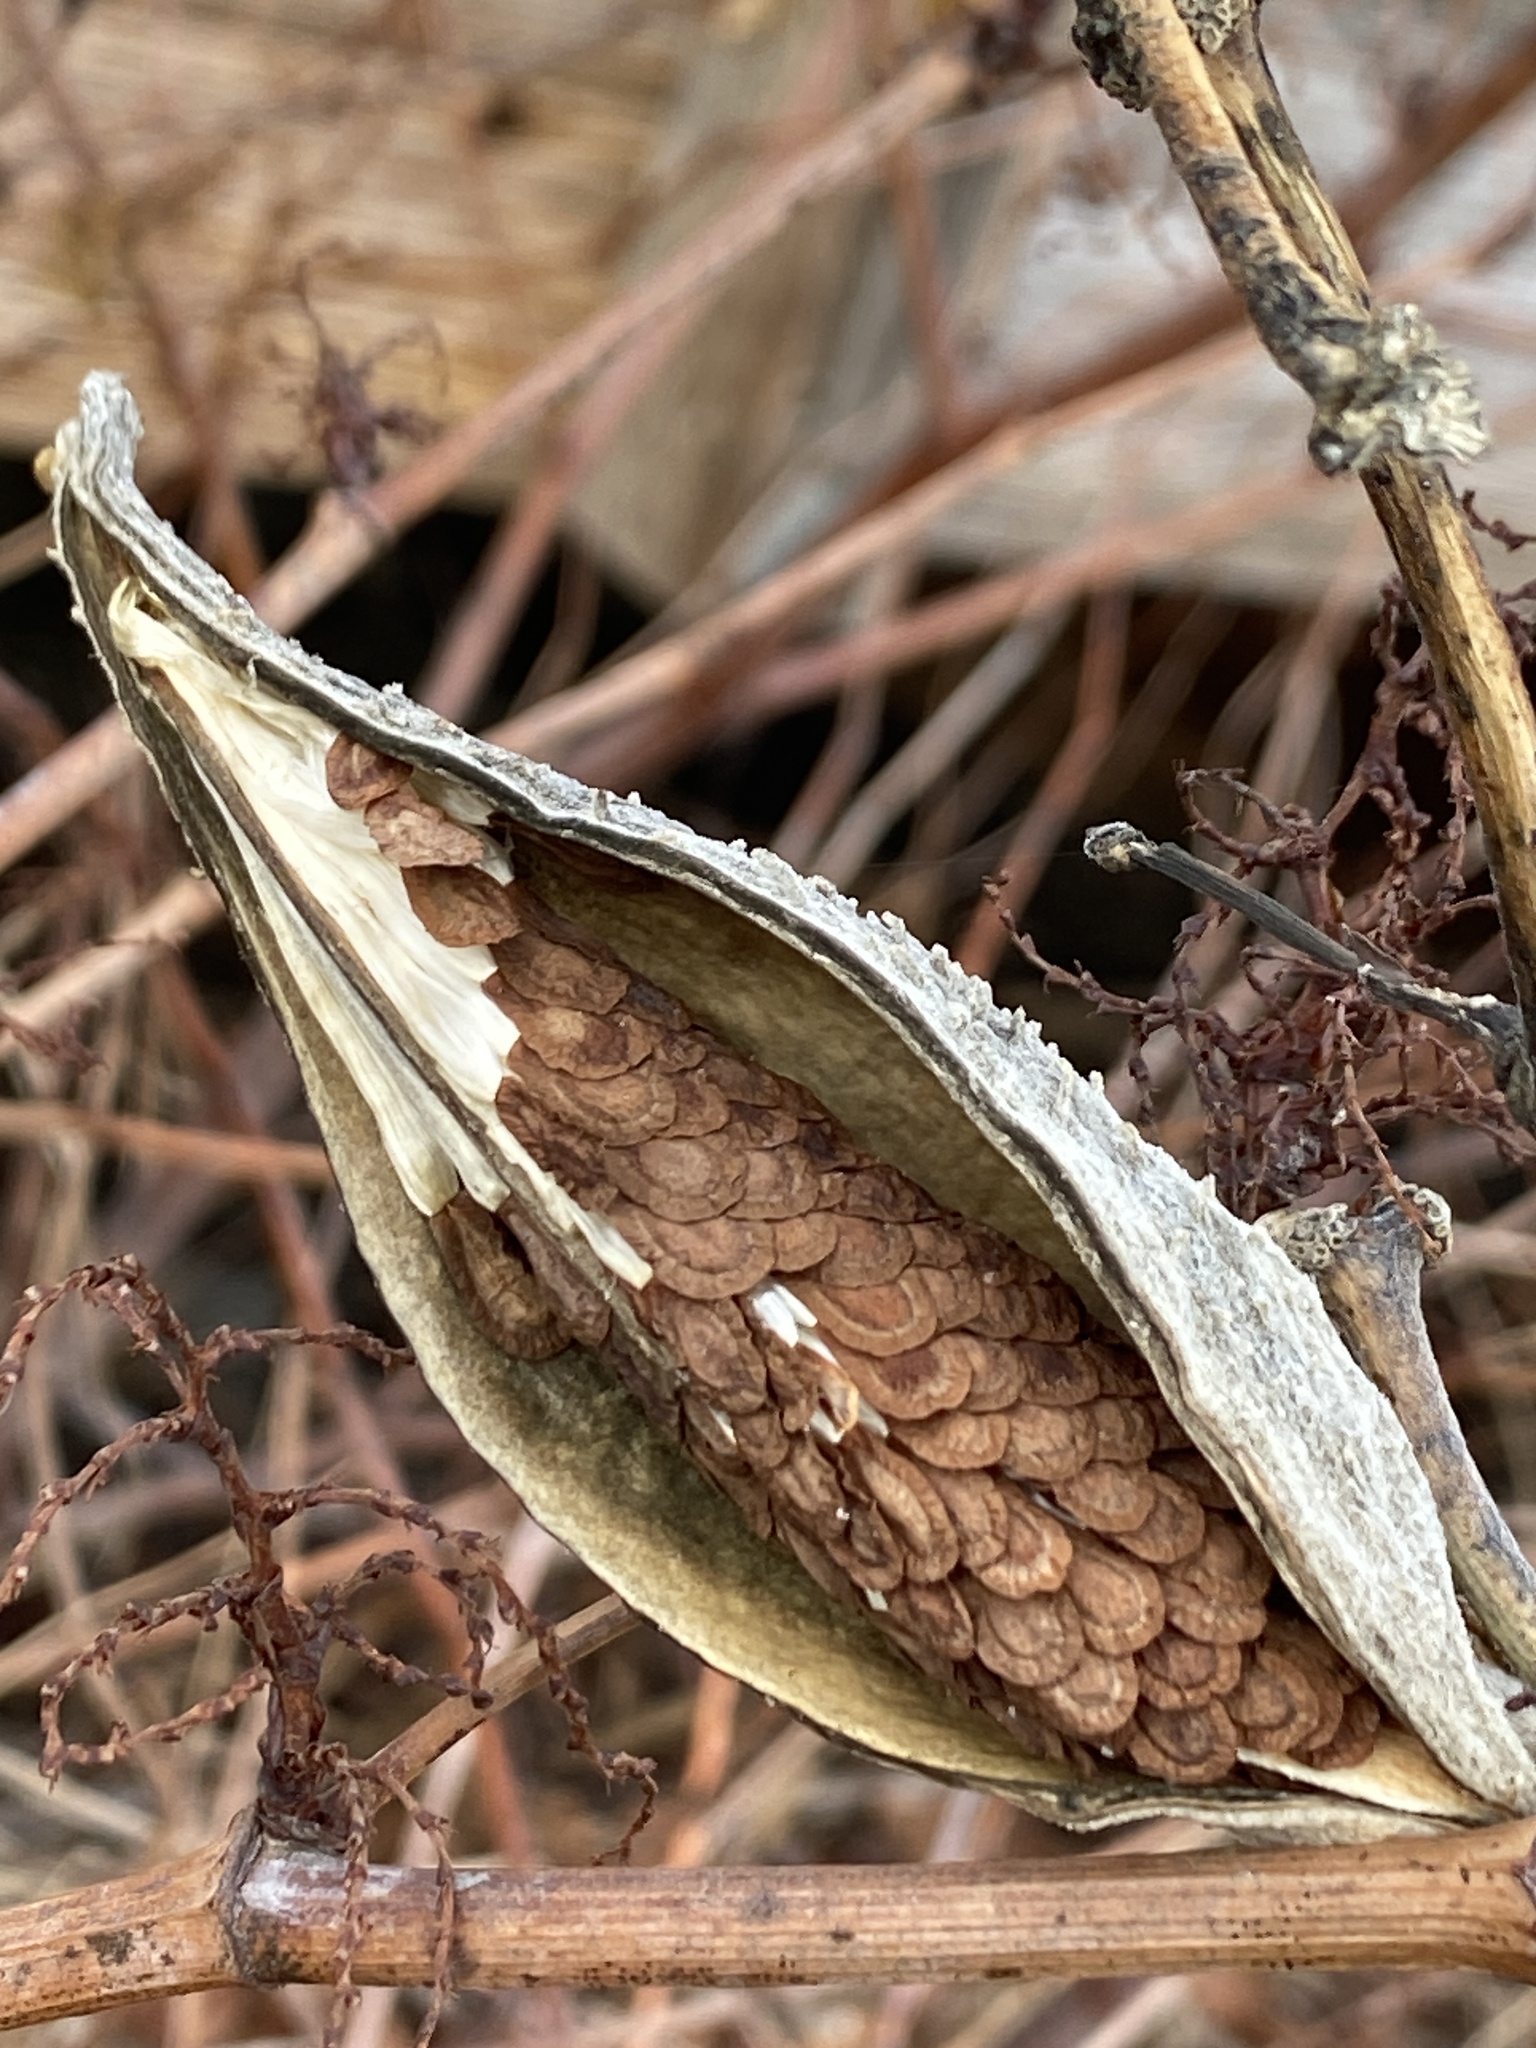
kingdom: Plantae
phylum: Tracheophyta
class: Magnoliopsida
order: Gentianales
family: Apocynaceae
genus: Asclepias
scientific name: Asclepias syriaca
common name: Common milkweed
